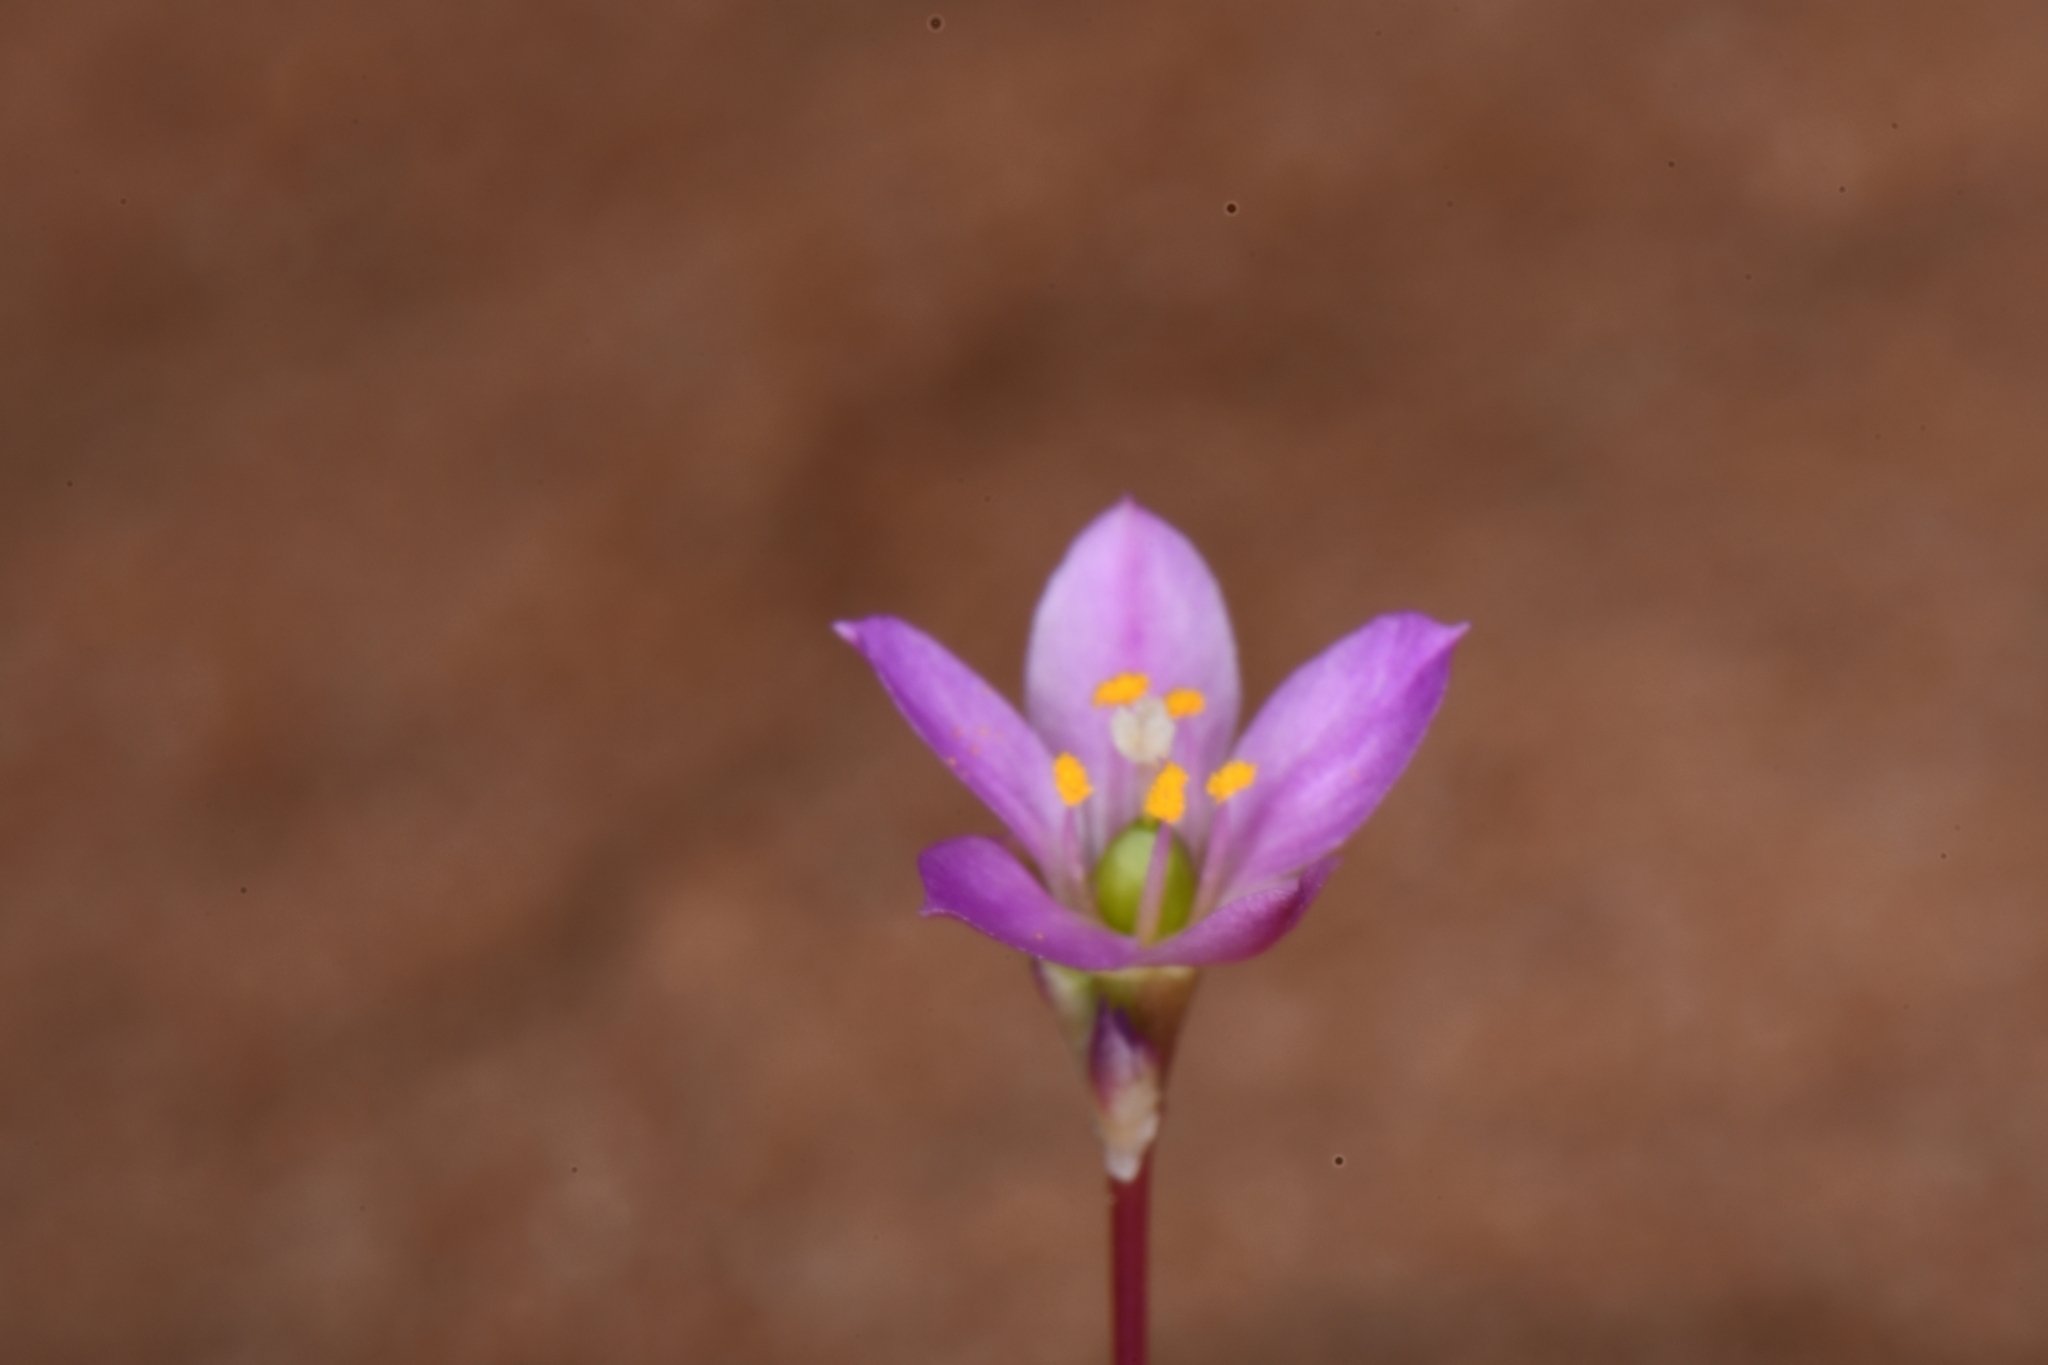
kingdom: Plantae
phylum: Tracheophyta
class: Magnoliopsida
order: Caryophyllales
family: Montiaceae
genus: Phemeranthus
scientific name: Phemeranthus confertiflorus
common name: New mexico fameflower
